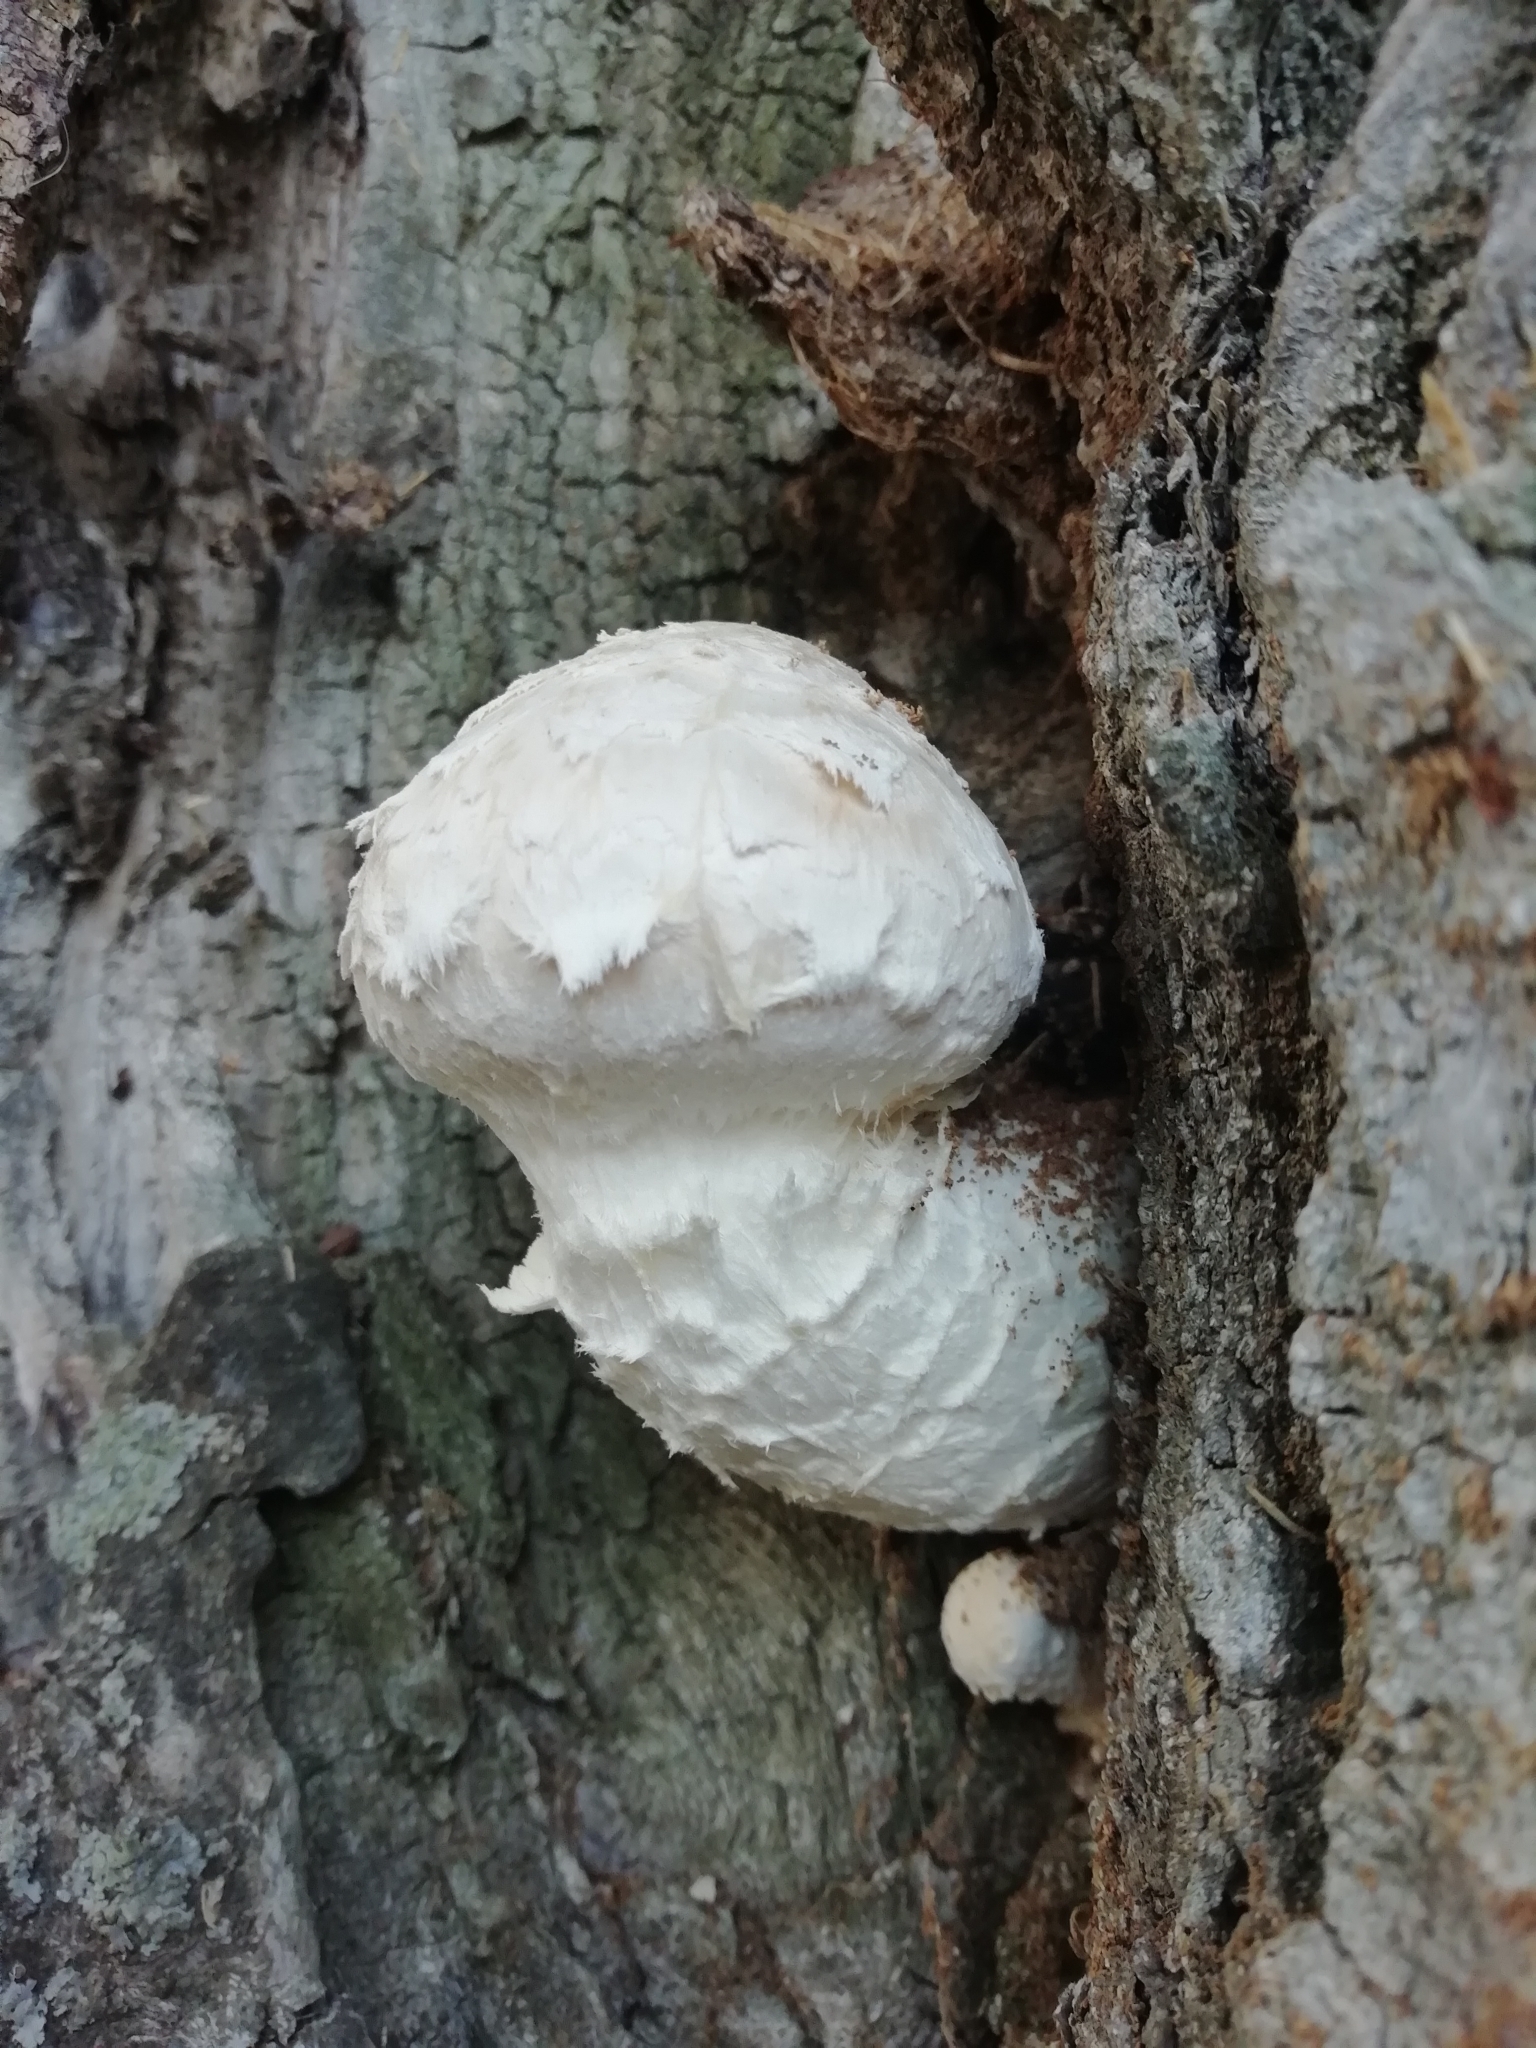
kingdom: Fungi
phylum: Basidiomycota
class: Agaricomycetes
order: Agaricales
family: Strophariaceae
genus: Pholiota
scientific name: Pholiota populnea
